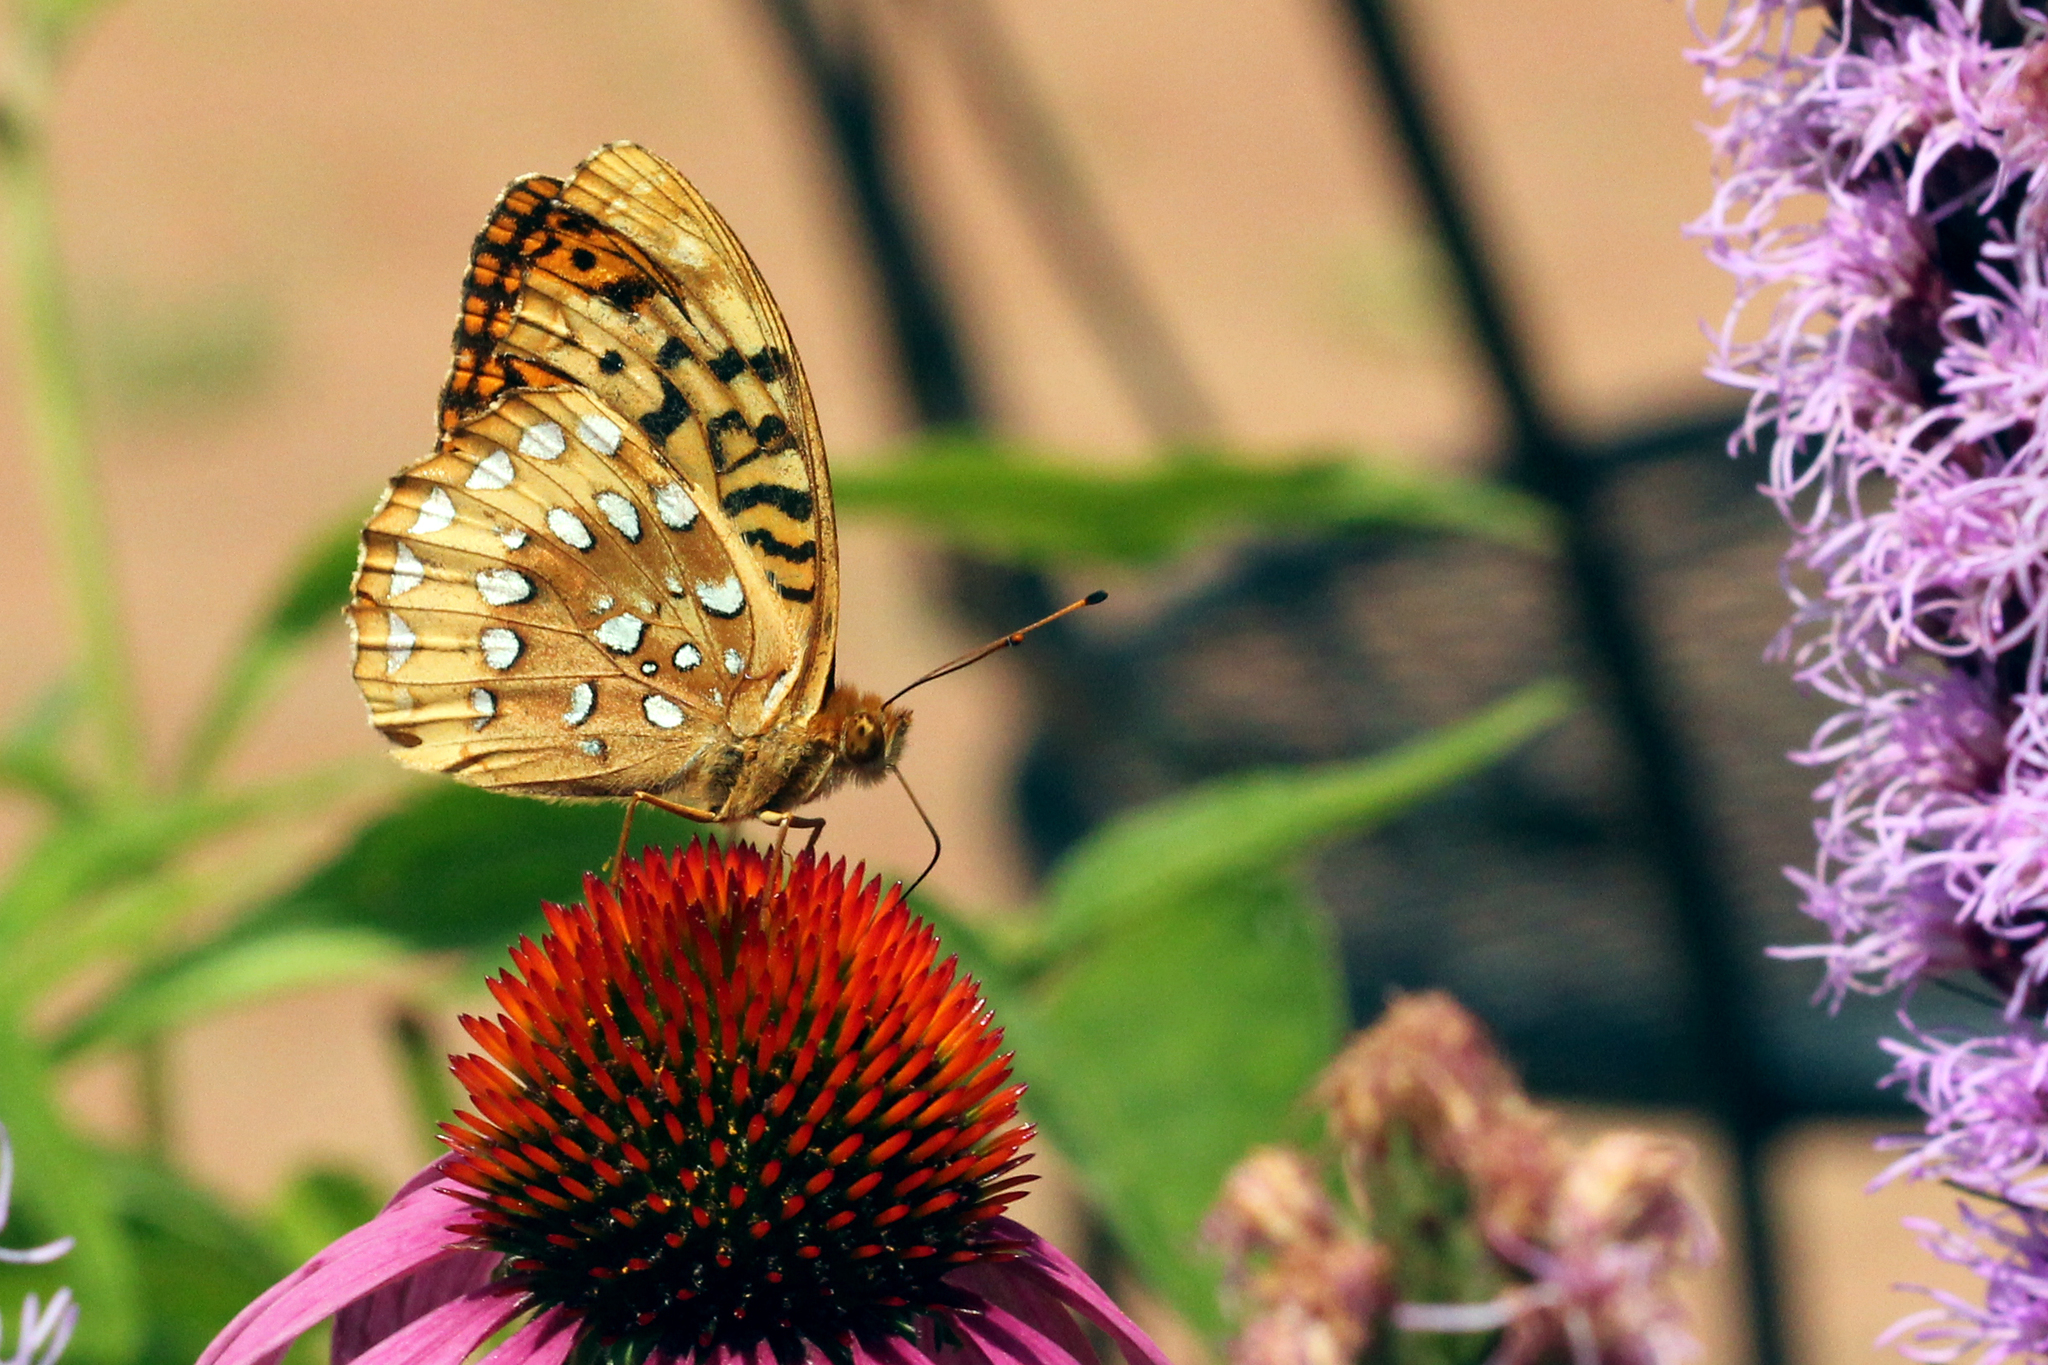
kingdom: Animalia
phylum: Arthropoda
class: Insecta
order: Lepidoptera
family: Nymphalidae
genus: Speyeria
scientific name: Speyeria cybele
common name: Great spangled fritillary
